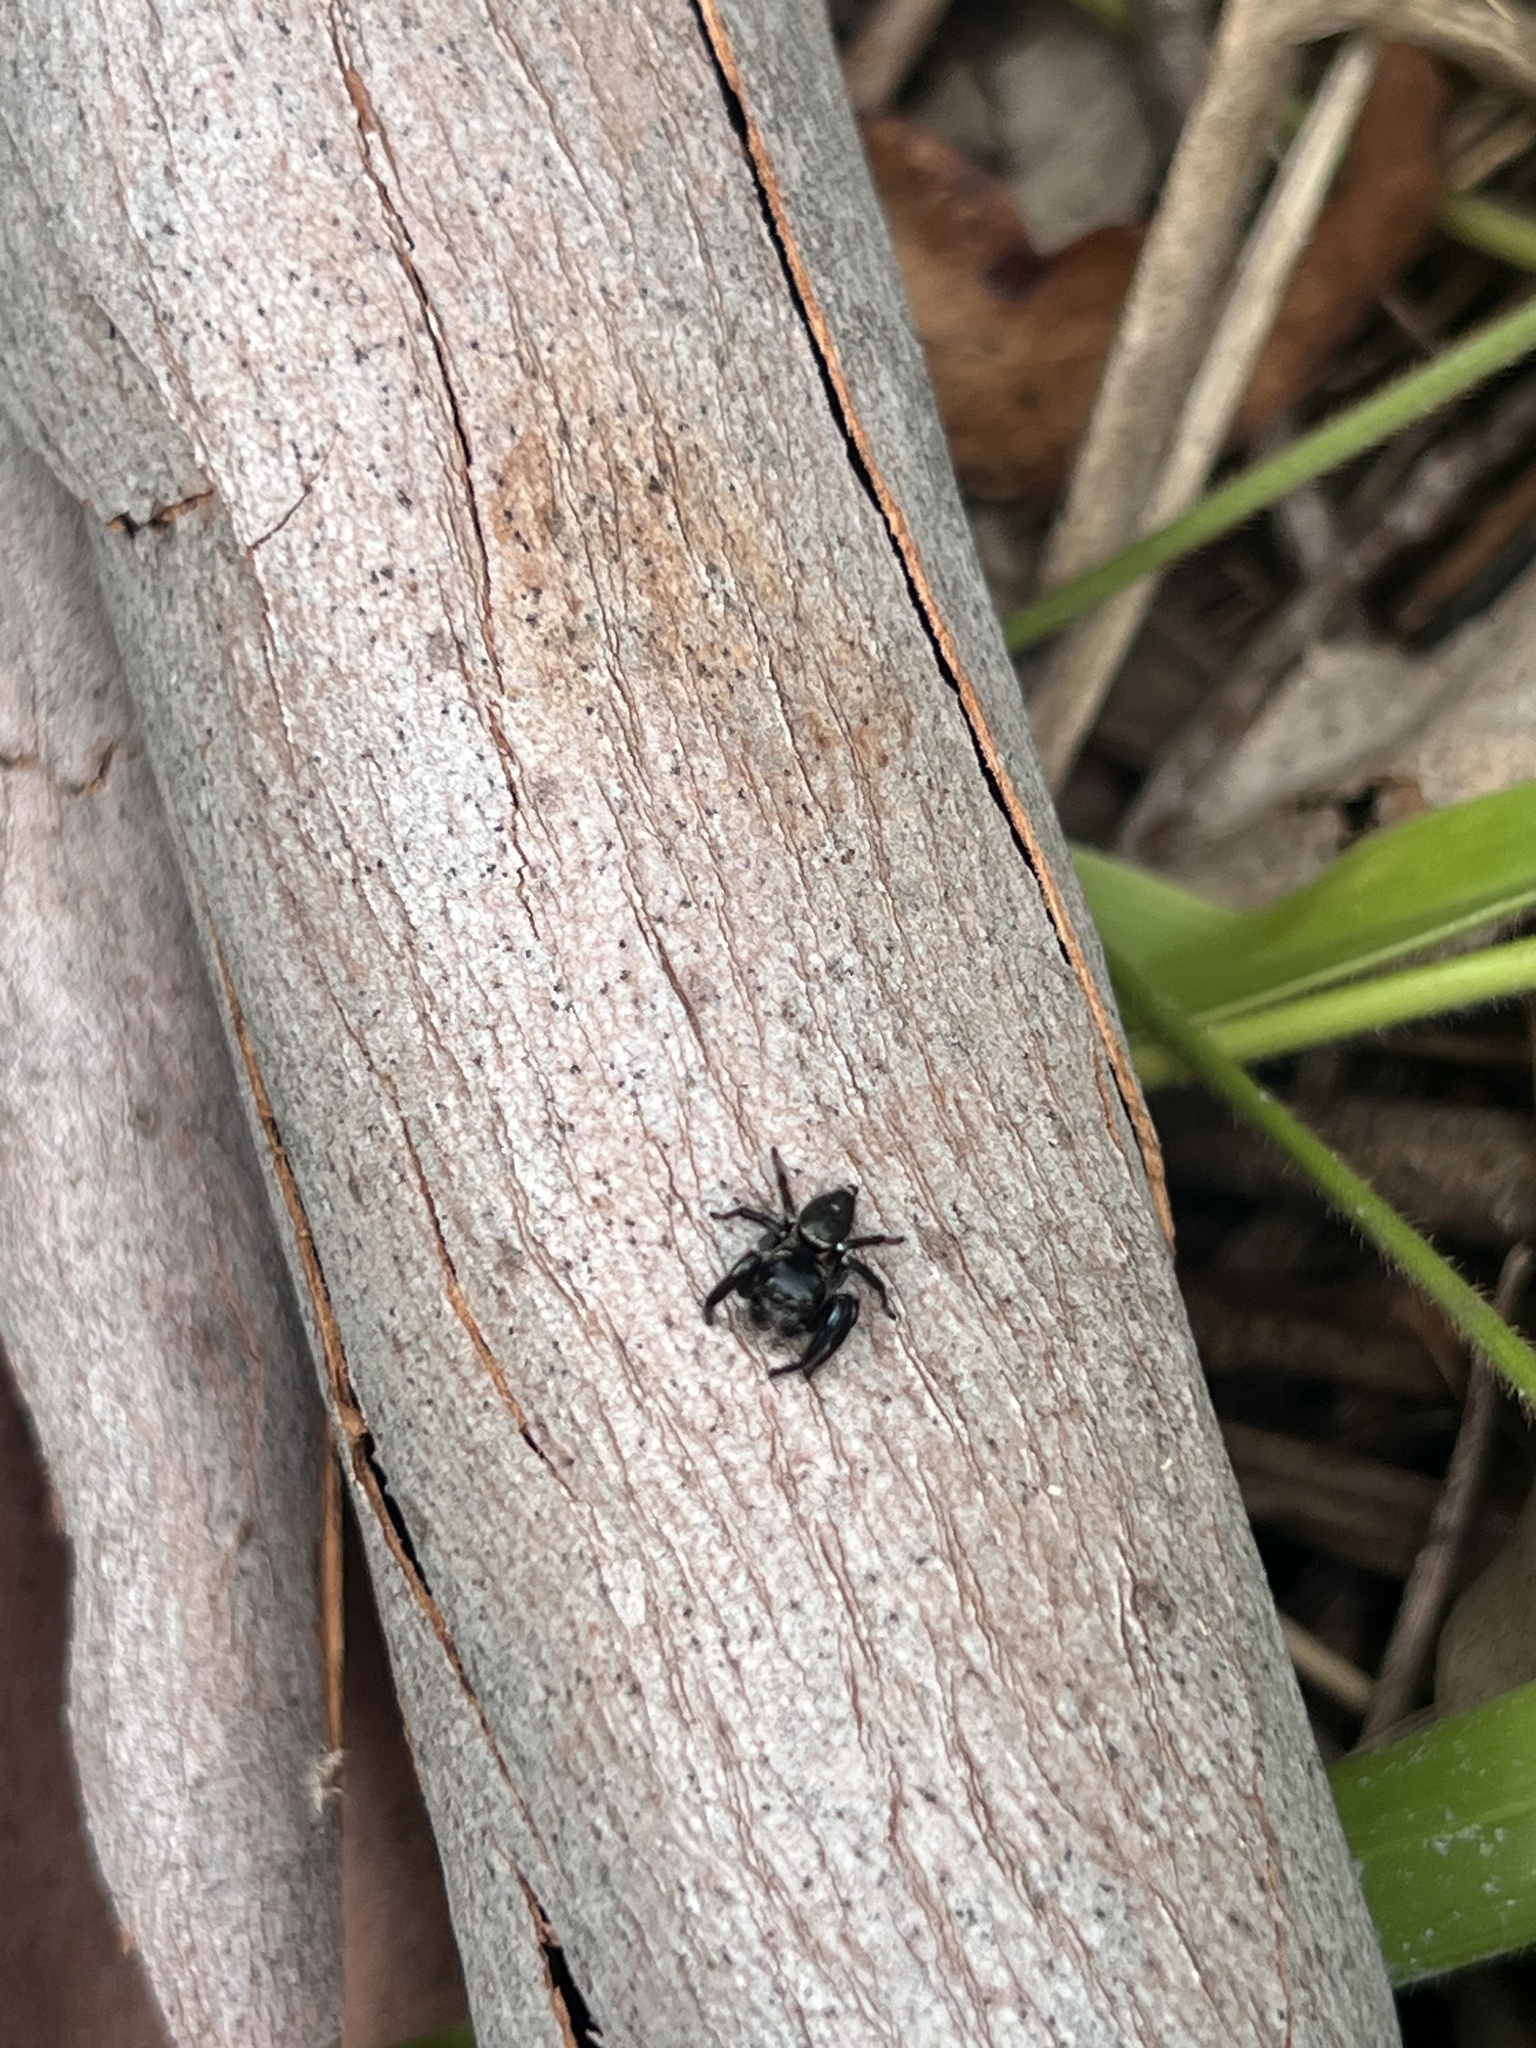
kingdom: Animalia
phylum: Arthropoda
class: Arachnida
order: Araneae
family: Salticidae
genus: Zenodorus
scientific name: Zenodorus orbiculatus
